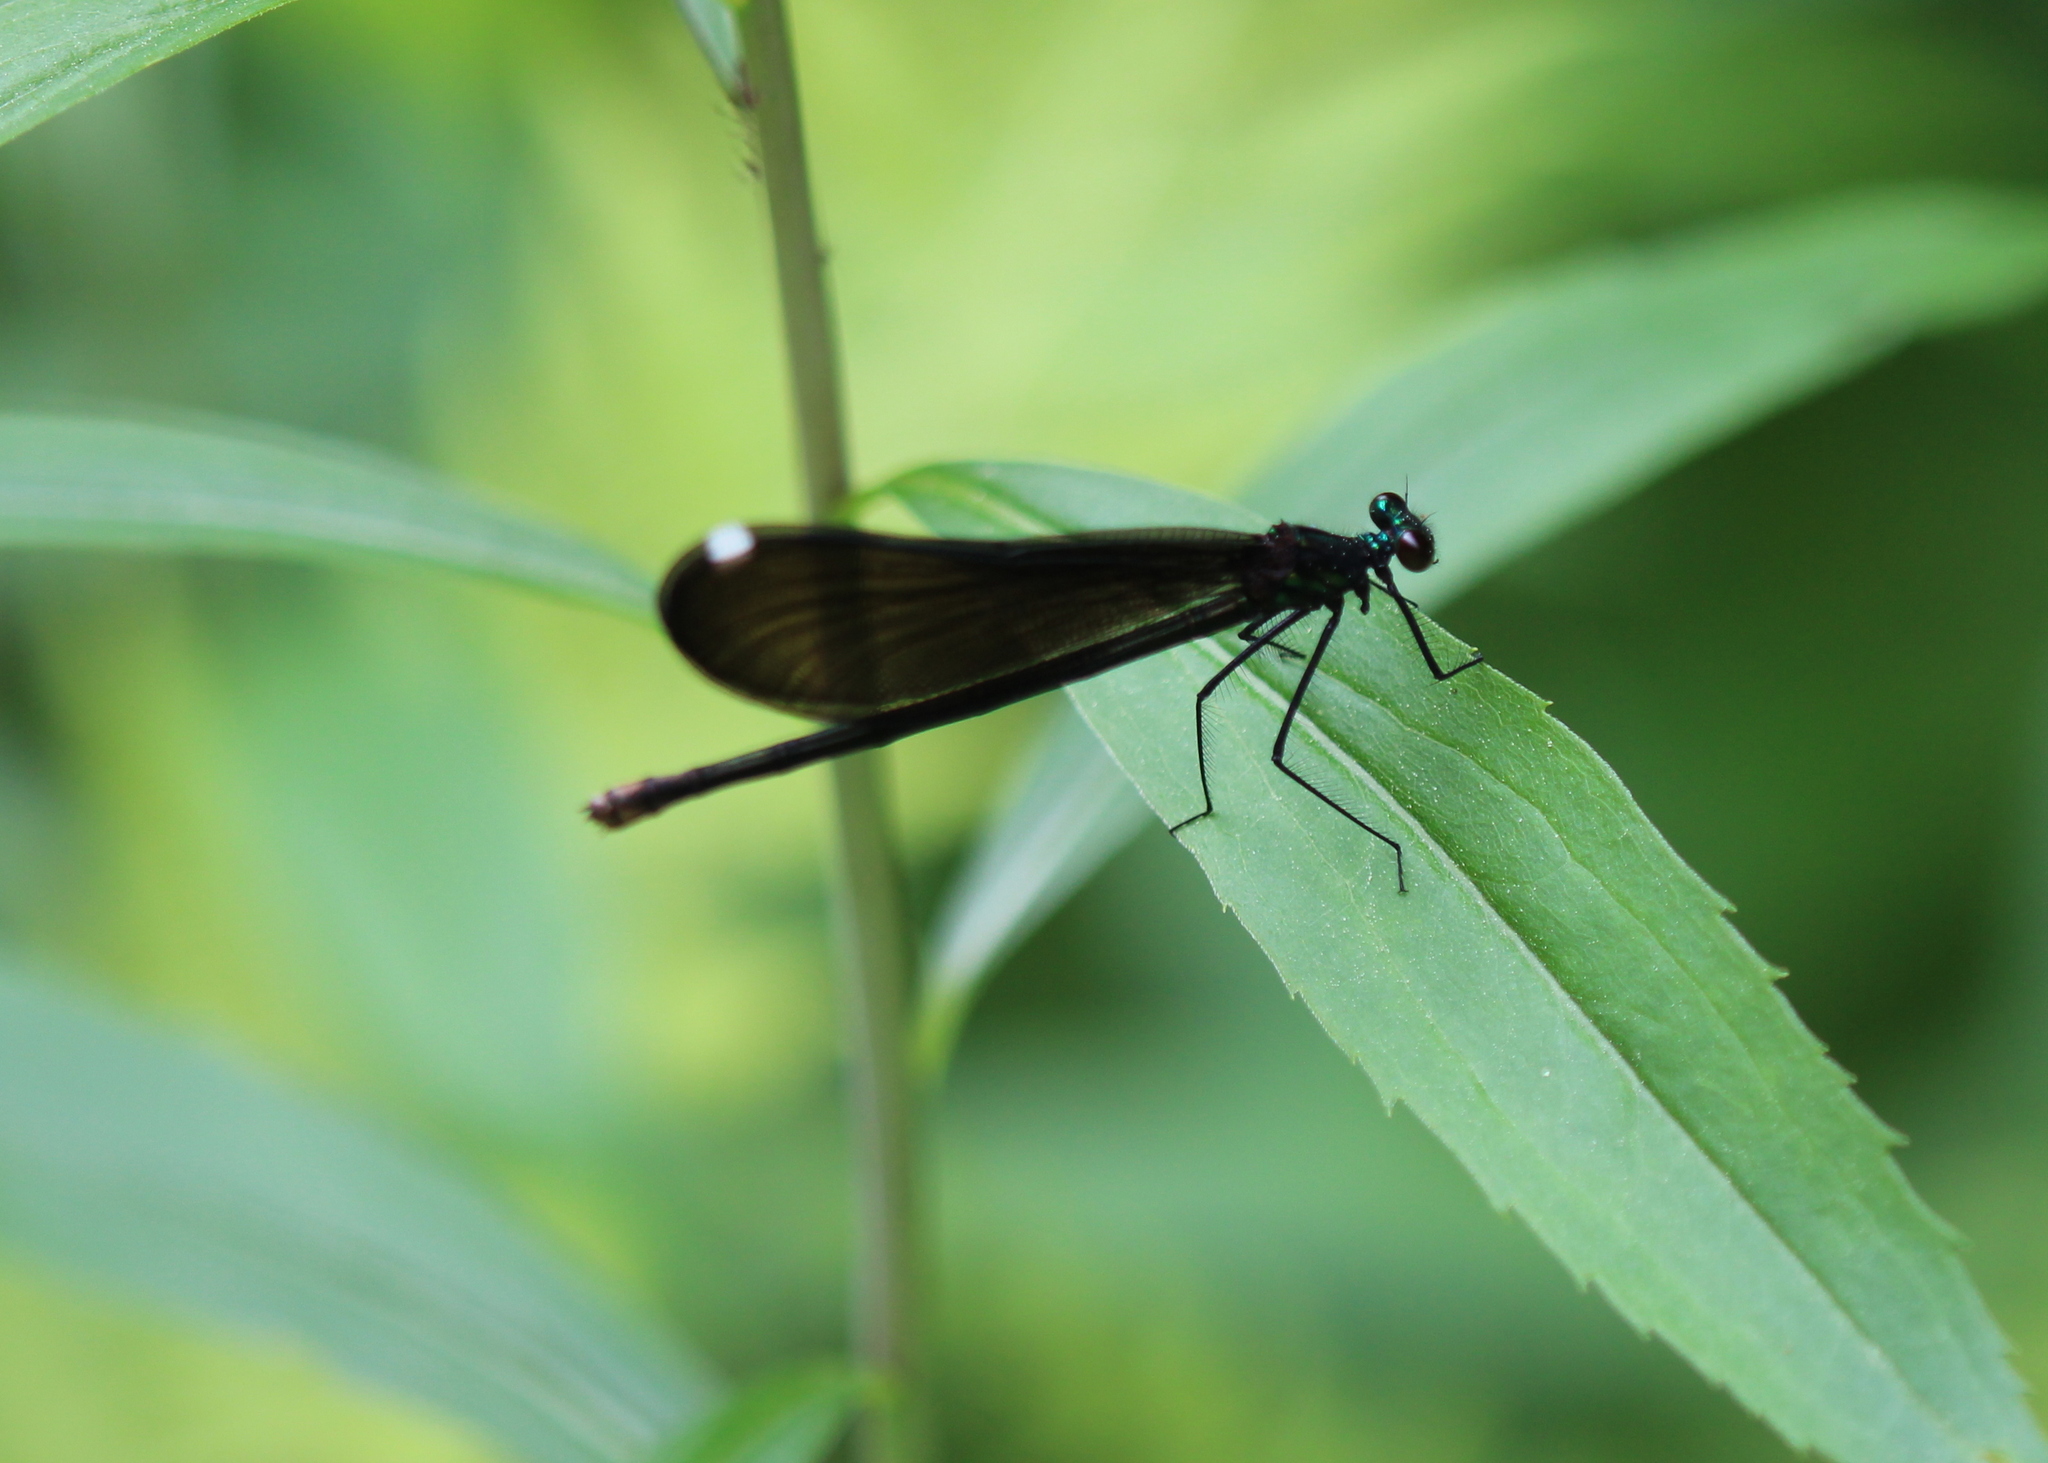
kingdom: Animalia
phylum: Arthropoda
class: Insecta
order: Odonata
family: Calopterygidae
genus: Calopteryx
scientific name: Calopteryx maculata
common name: Ebony jewelwing
